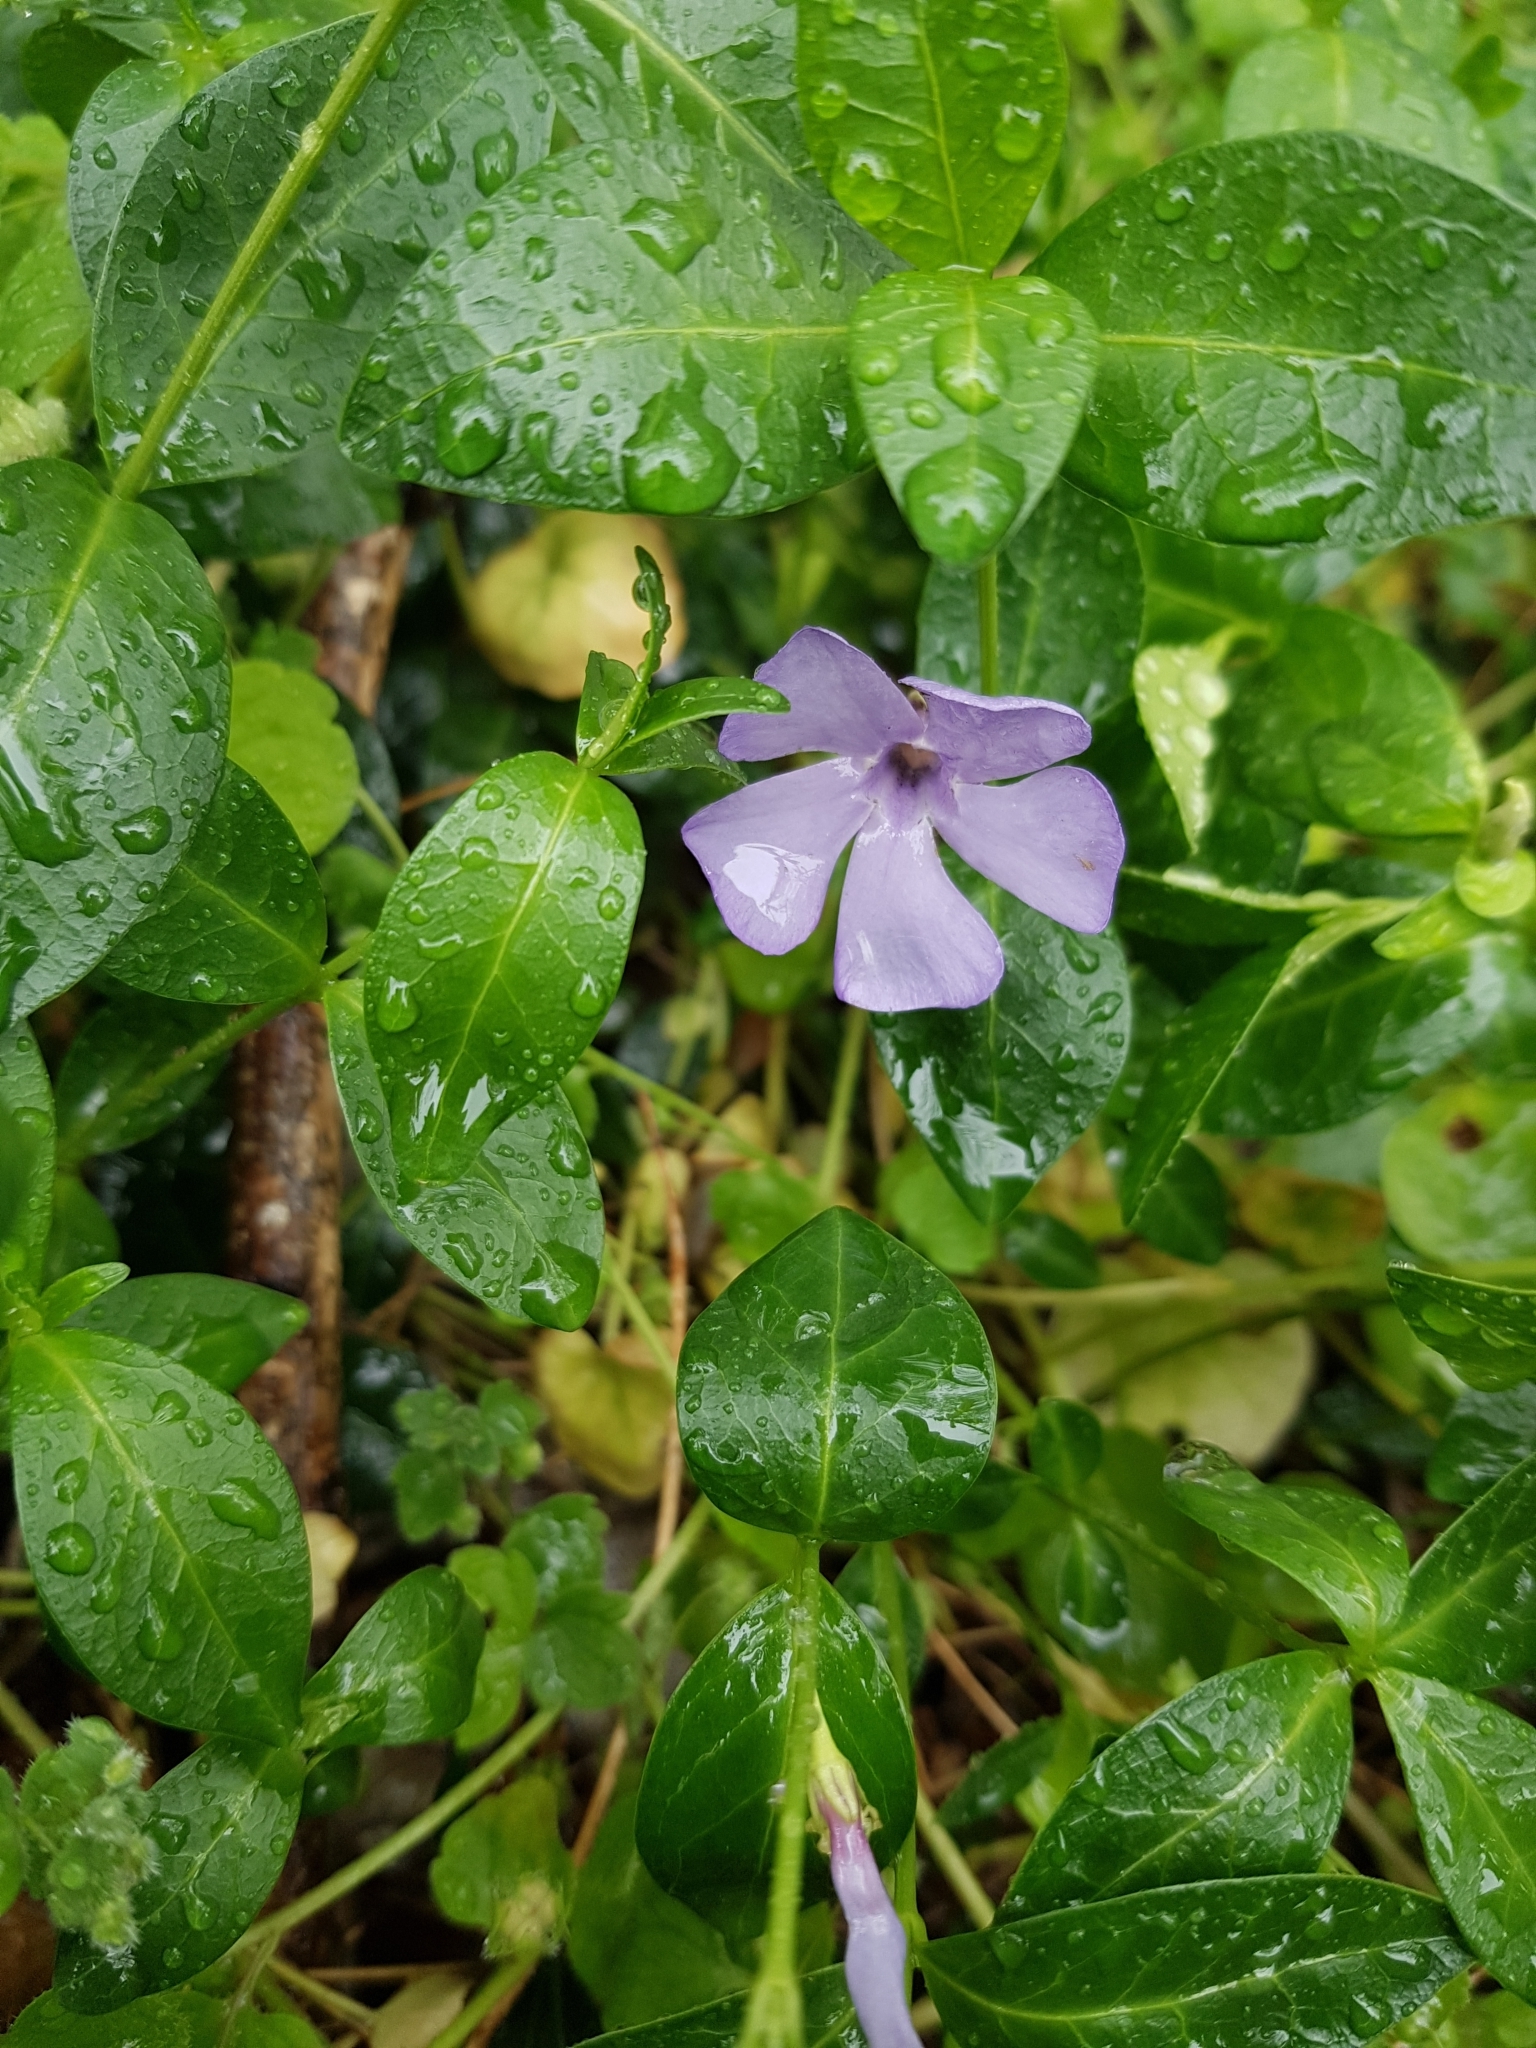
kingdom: Plantae
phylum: Tracheophyta
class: Magnoliopsida
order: Gentianales
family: Apocynaceae
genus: Vinca
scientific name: Vinca minor
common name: Lesser periwinkle
